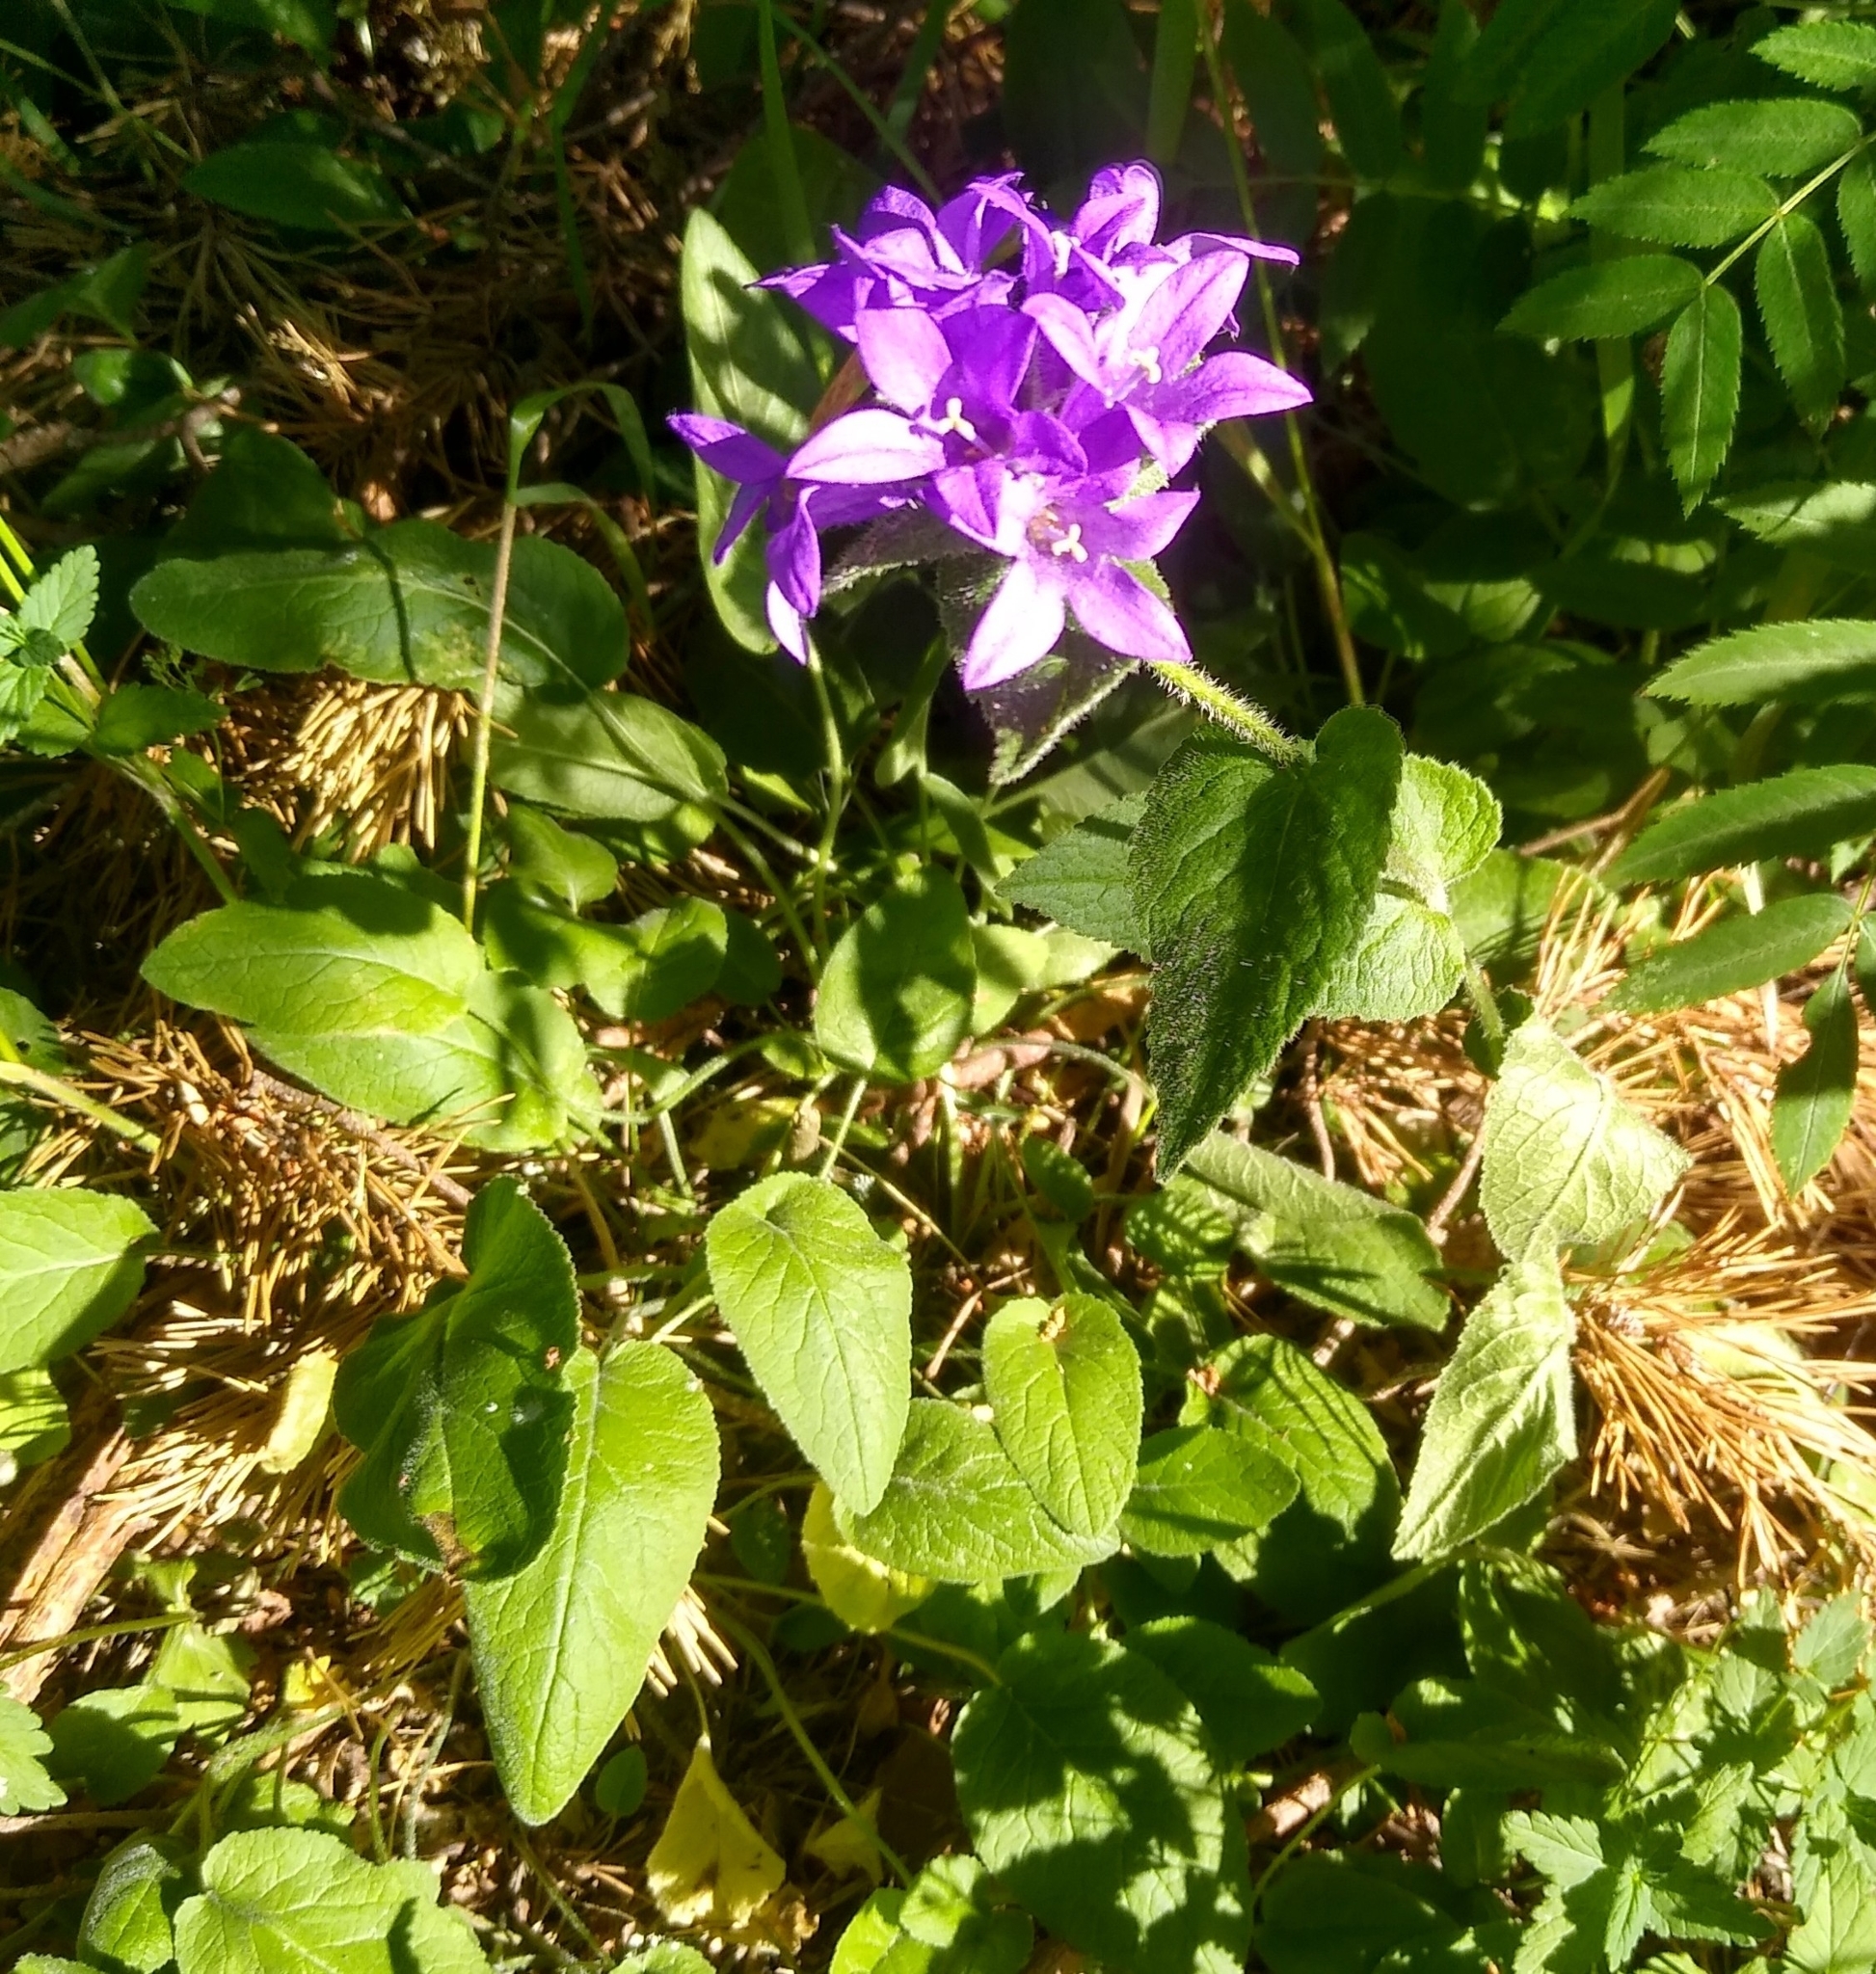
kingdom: Plantae
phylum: Tracheophyta
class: Magnoliopsida
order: Asterales
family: Campanulaceae
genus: Campanula
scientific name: Campanula glomerata
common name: Clustered bellflower
